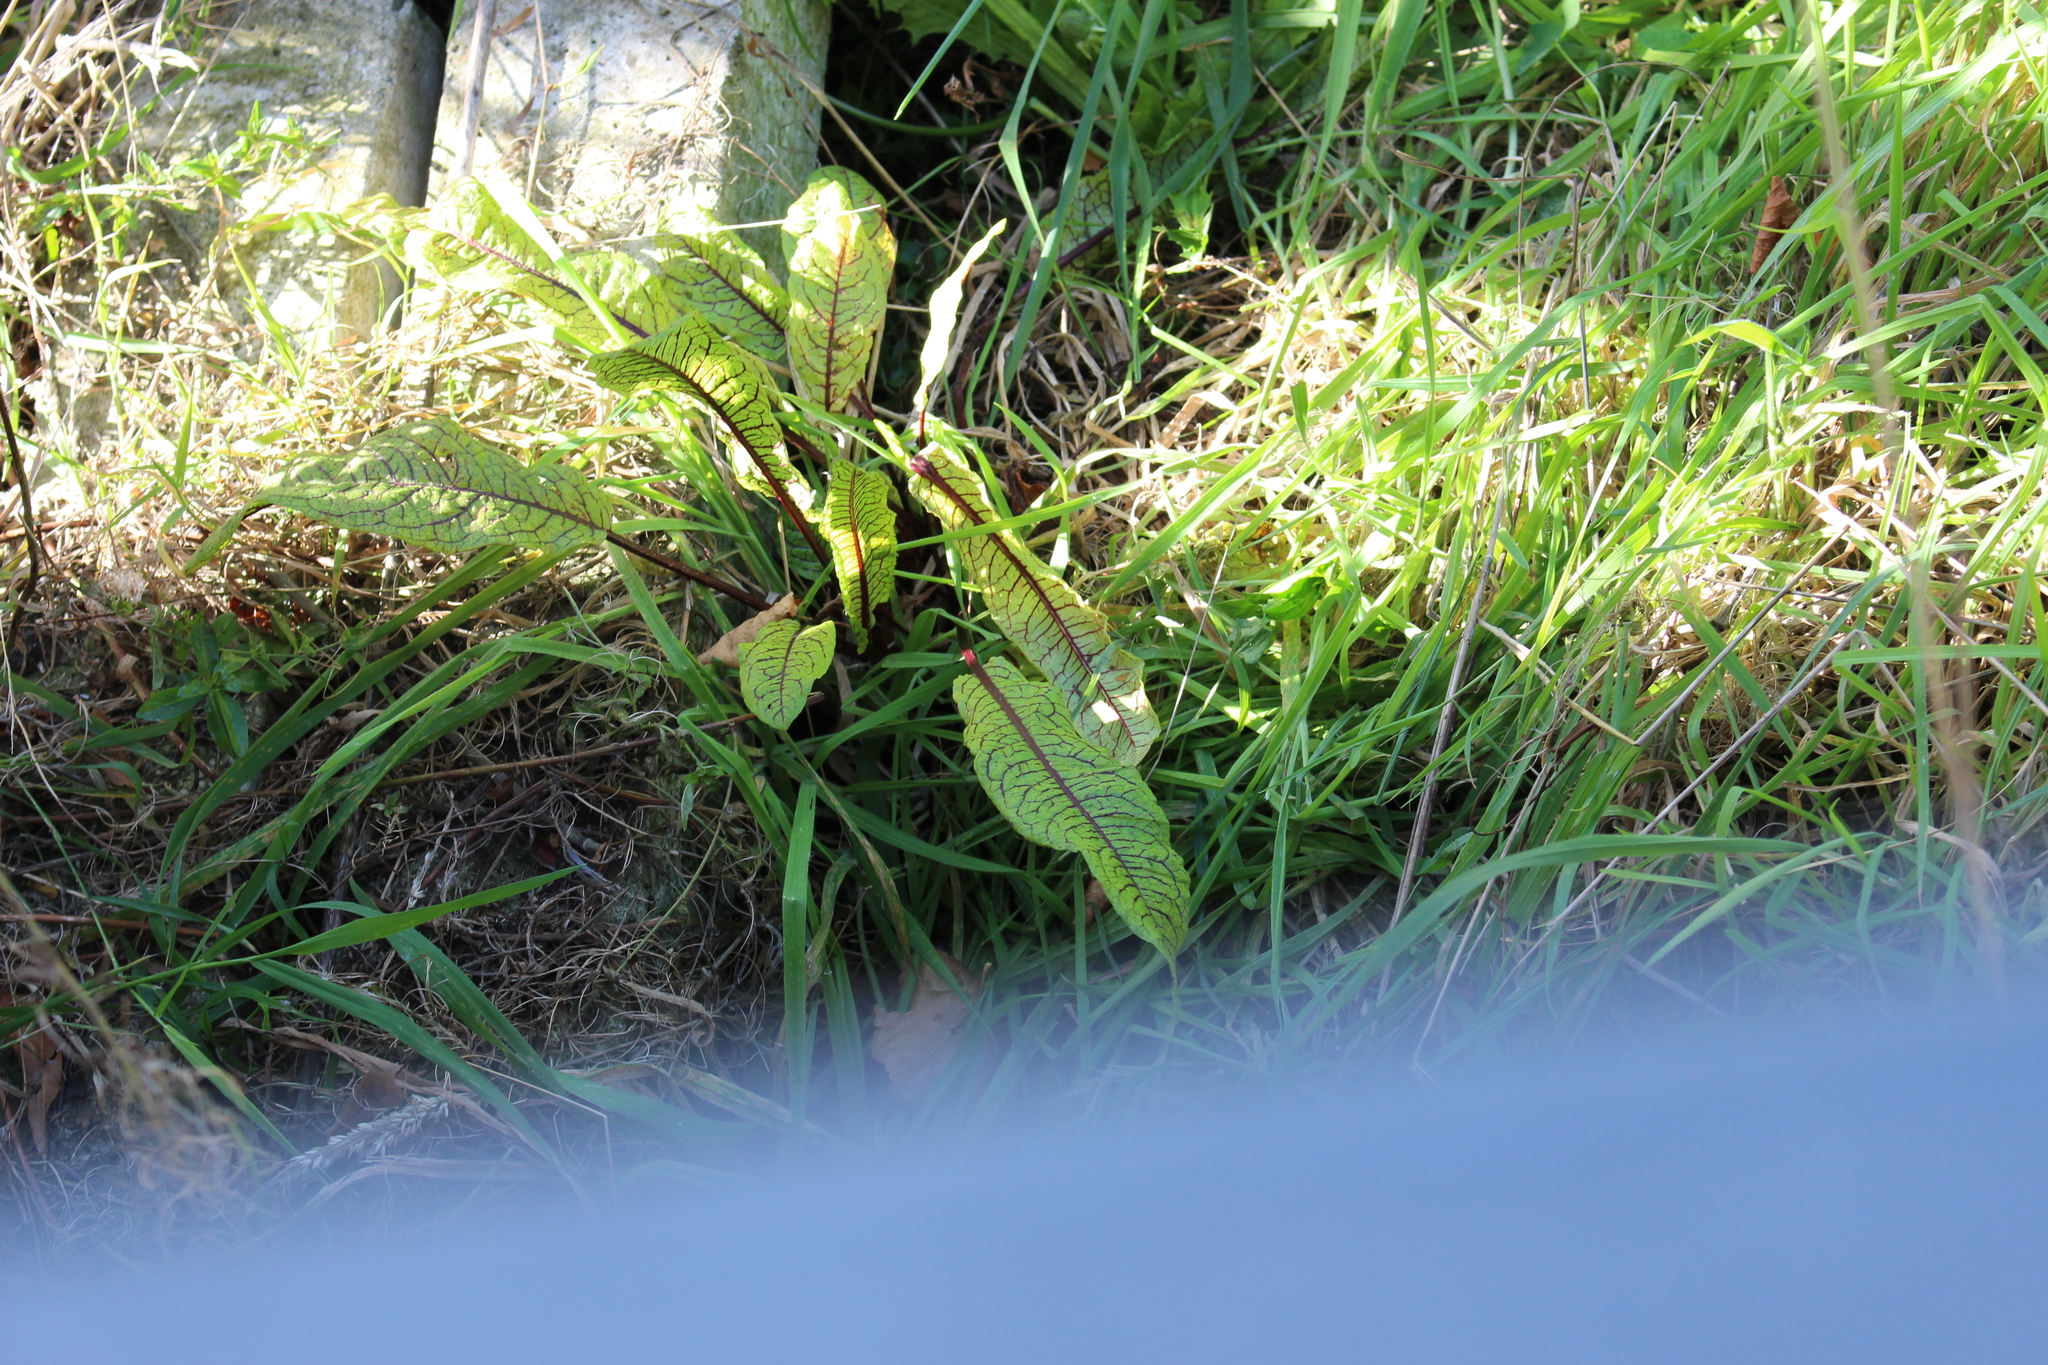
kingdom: Plantae
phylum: Tracheophyta
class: Magnoliopsida
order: Caryophyllales
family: Polygonaceae
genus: Rumex
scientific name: Rumex sanguineus
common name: Wood dock
